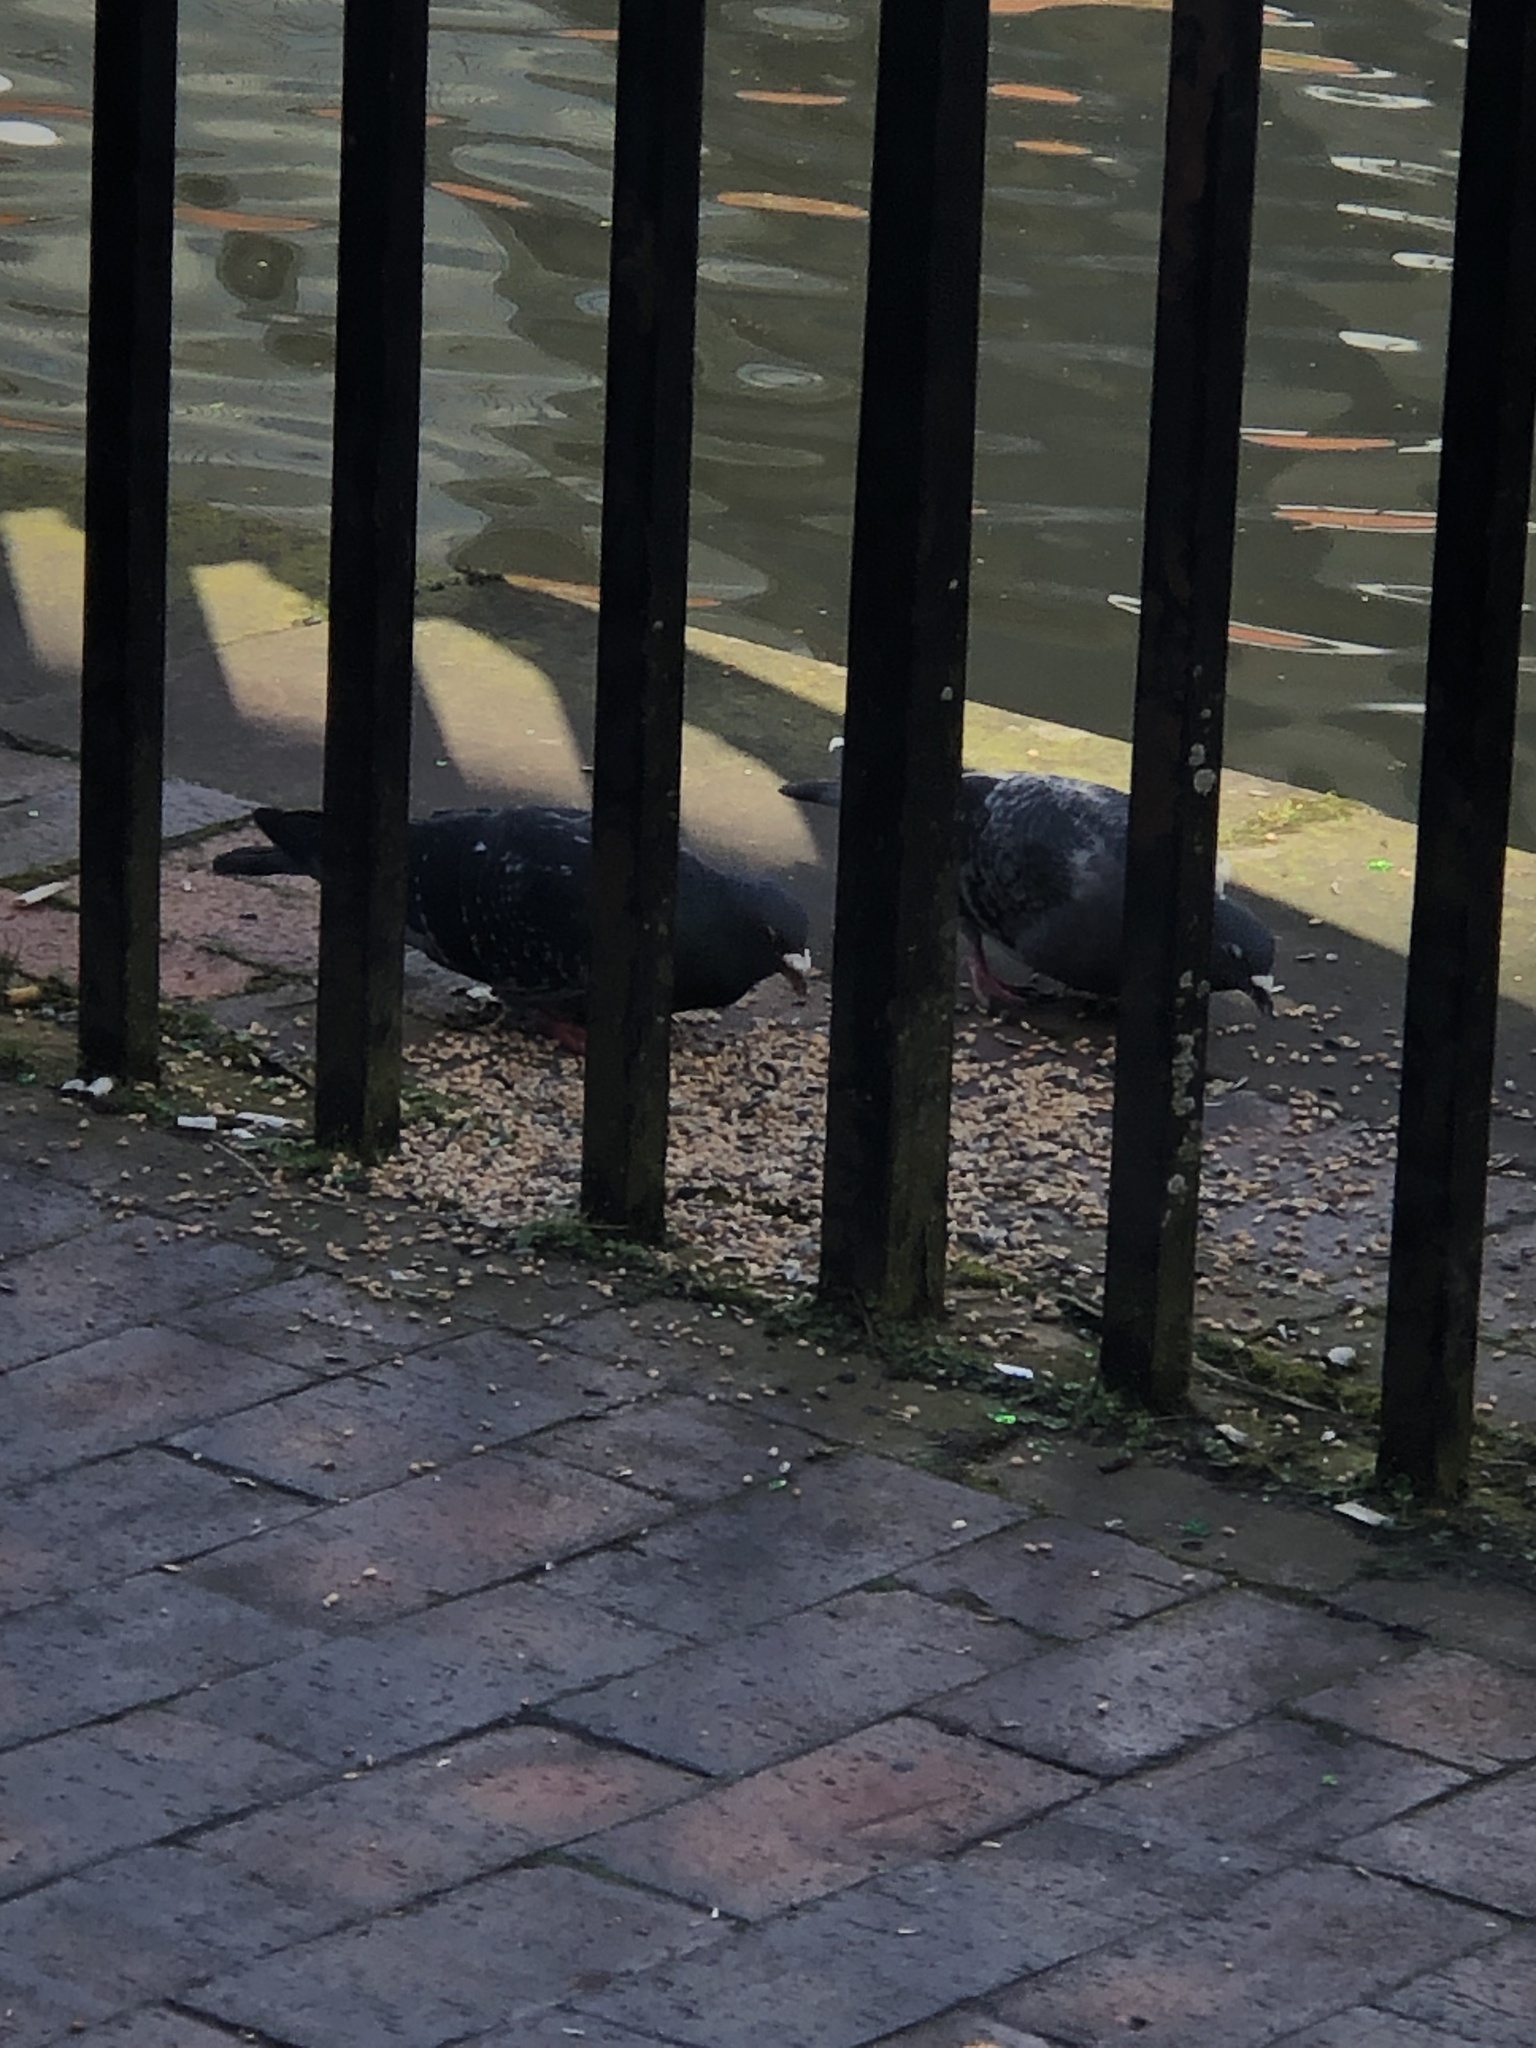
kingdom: Animalia
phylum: Chordata
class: Aves
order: Columbiformes
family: Columbidae
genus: Columba
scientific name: Columba livia
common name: Rock pigeon
